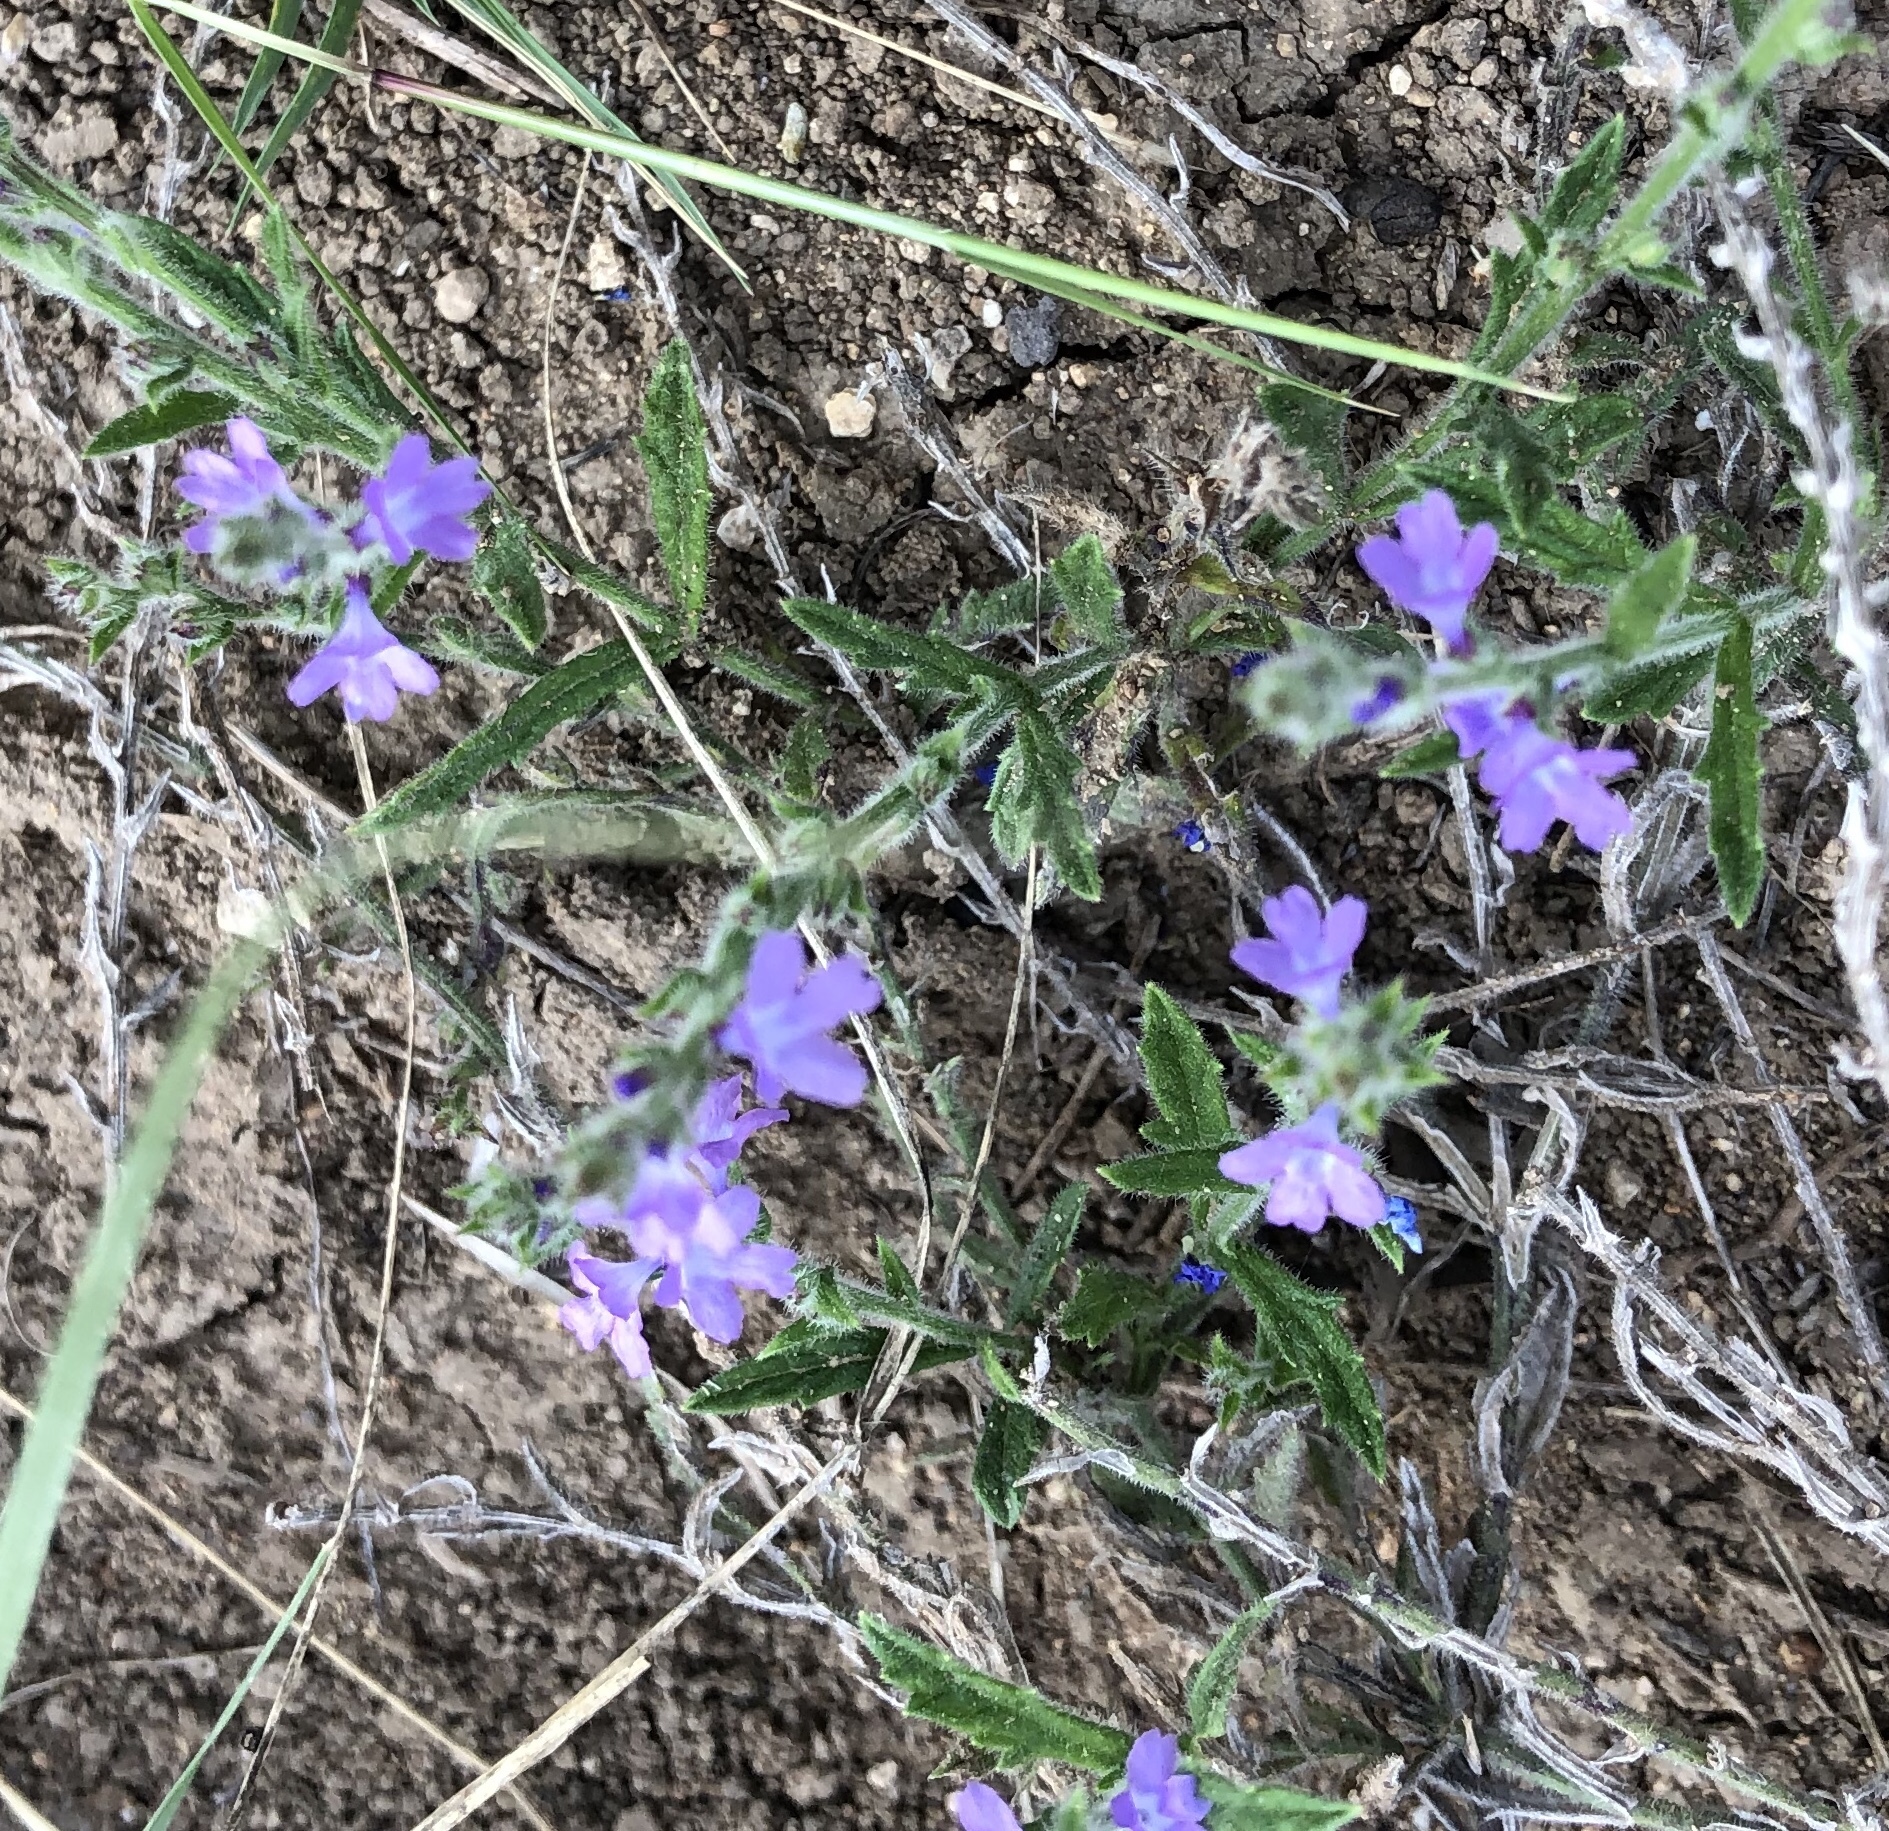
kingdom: Plantae
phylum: Tracheophyta
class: Magnoliopsida
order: Lamiales
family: Verbenaceae
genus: Verbena
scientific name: Verbena canescens
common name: Gray vervain
